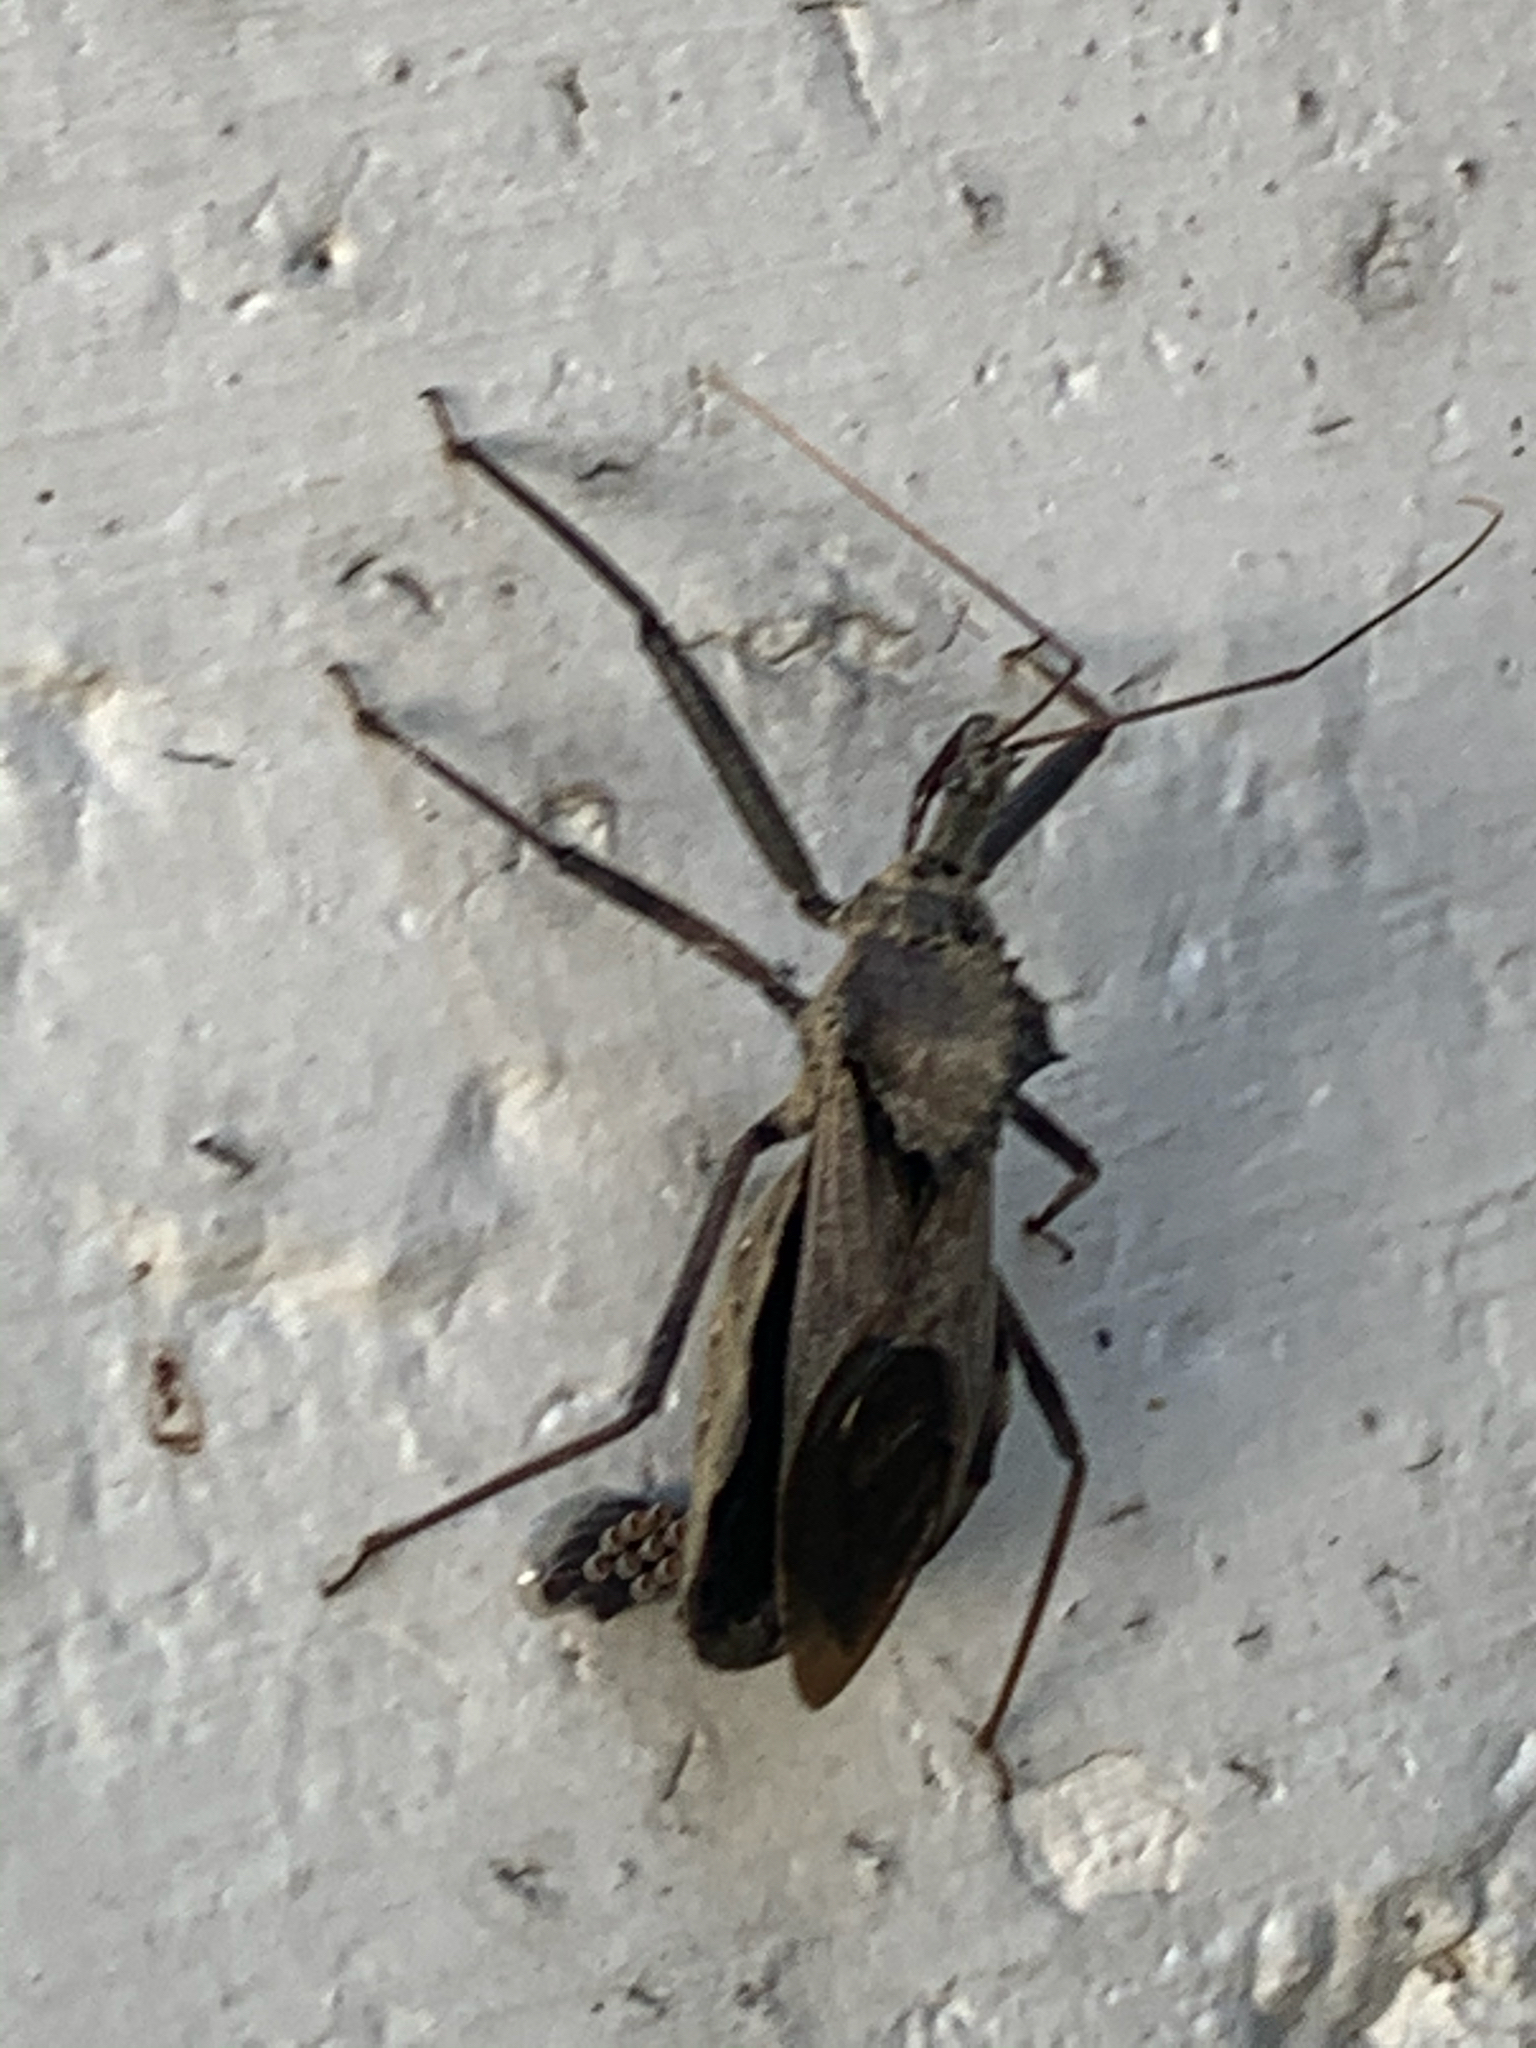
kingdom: Animalia
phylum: Arthropoda
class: Insecta
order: Hemiptera
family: Reduviidae
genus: Arilus
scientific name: Arilus cristatus
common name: North american wheel bug
